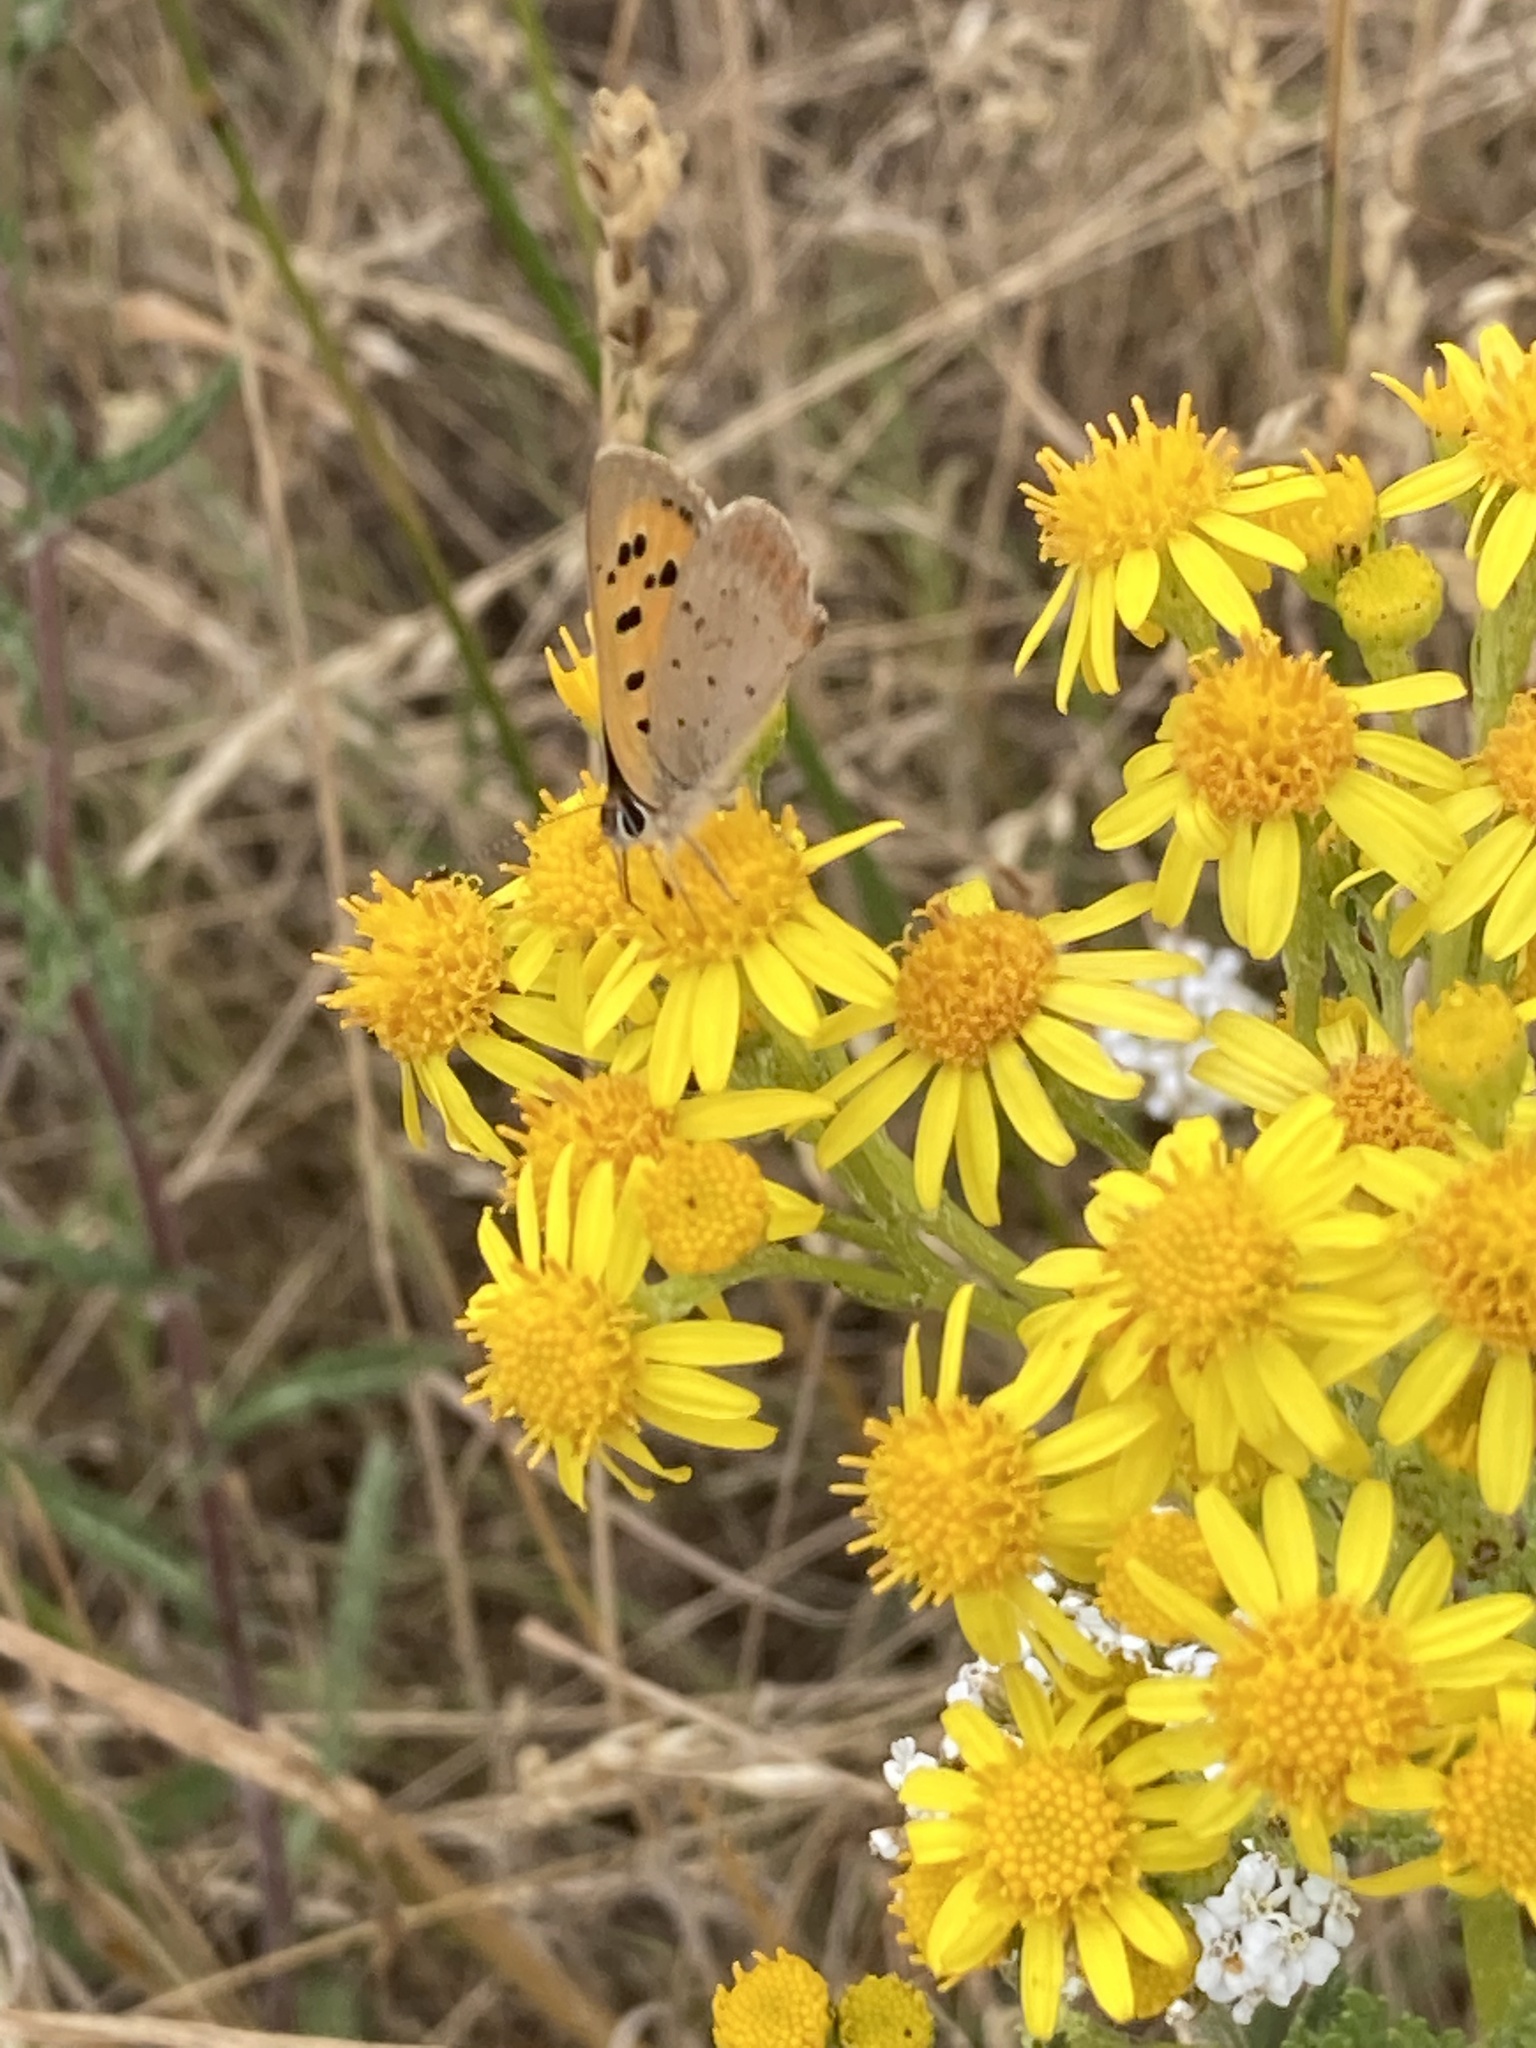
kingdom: Animalia
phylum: Arthropoda
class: Insecta
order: Lepidoptera
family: Lycaenidae
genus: Lycaena
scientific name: Lycaena phlaeas
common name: Small copper
